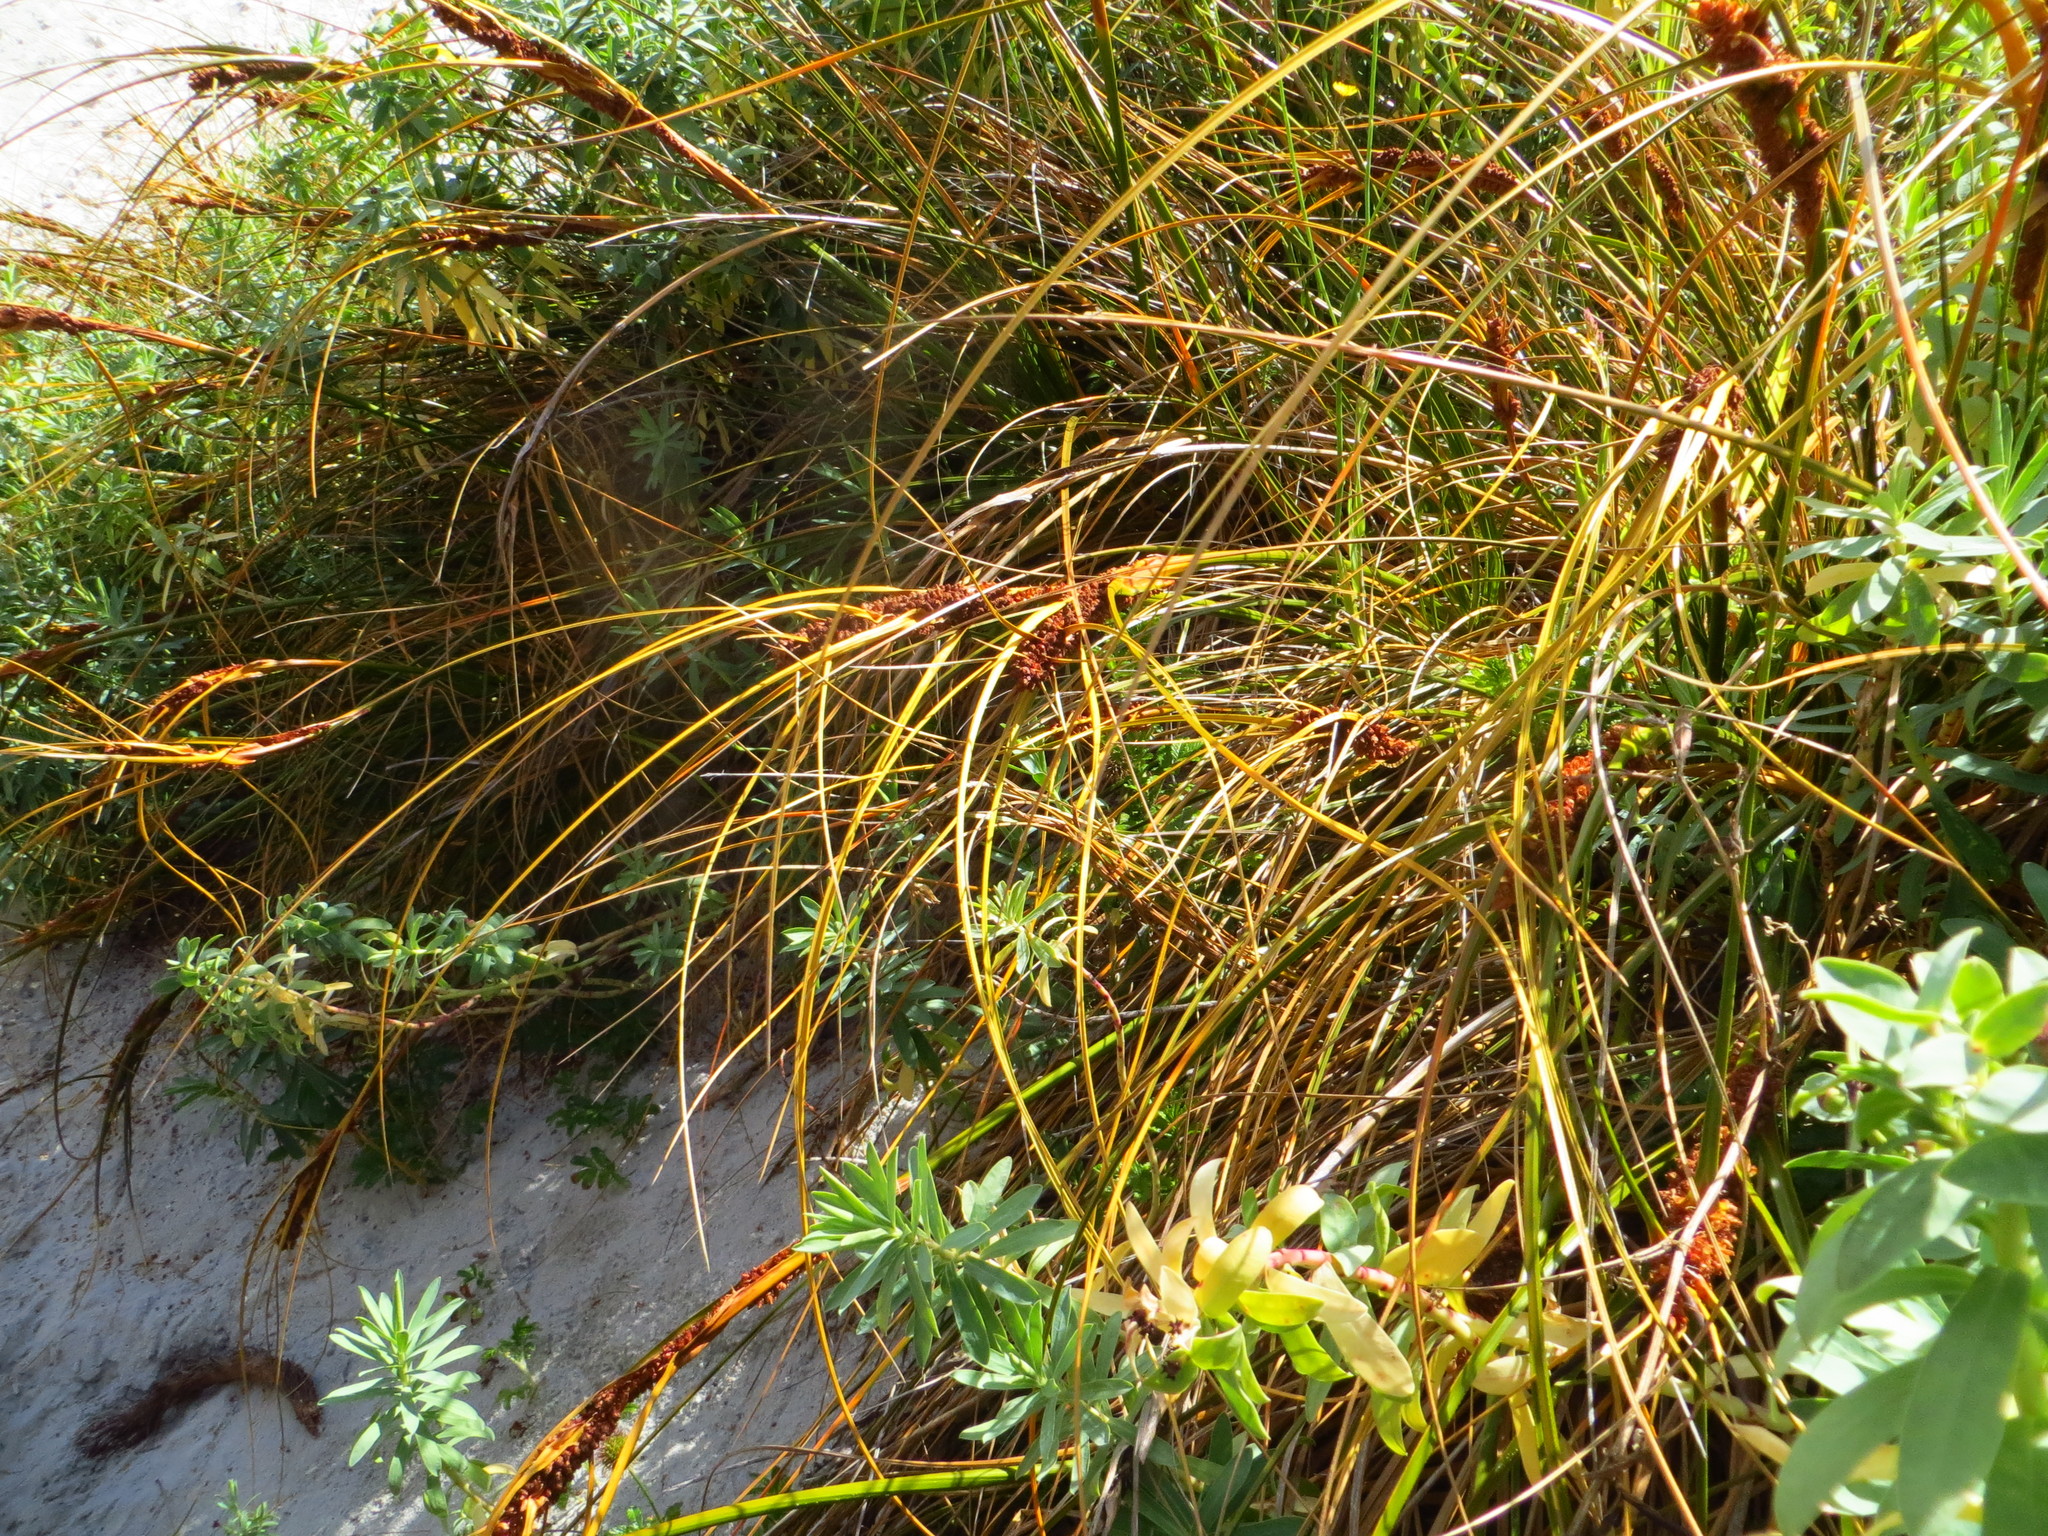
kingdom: Plantae
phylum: Tracheophyta
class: Liliopsida
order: Poales
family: Cyperaceae
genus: Ficinia
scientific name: Ficinia spiralis
